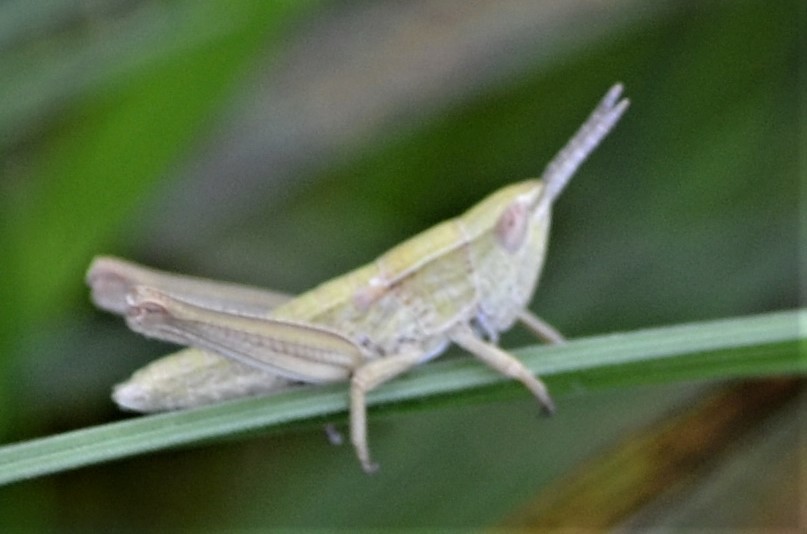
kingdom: Animalia
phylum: Arthropoda
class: Insecta
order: Orthoptera
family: Acrididae
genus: Euthystira
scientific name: Euthystira brachyptera
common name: Small gold grasshopper
